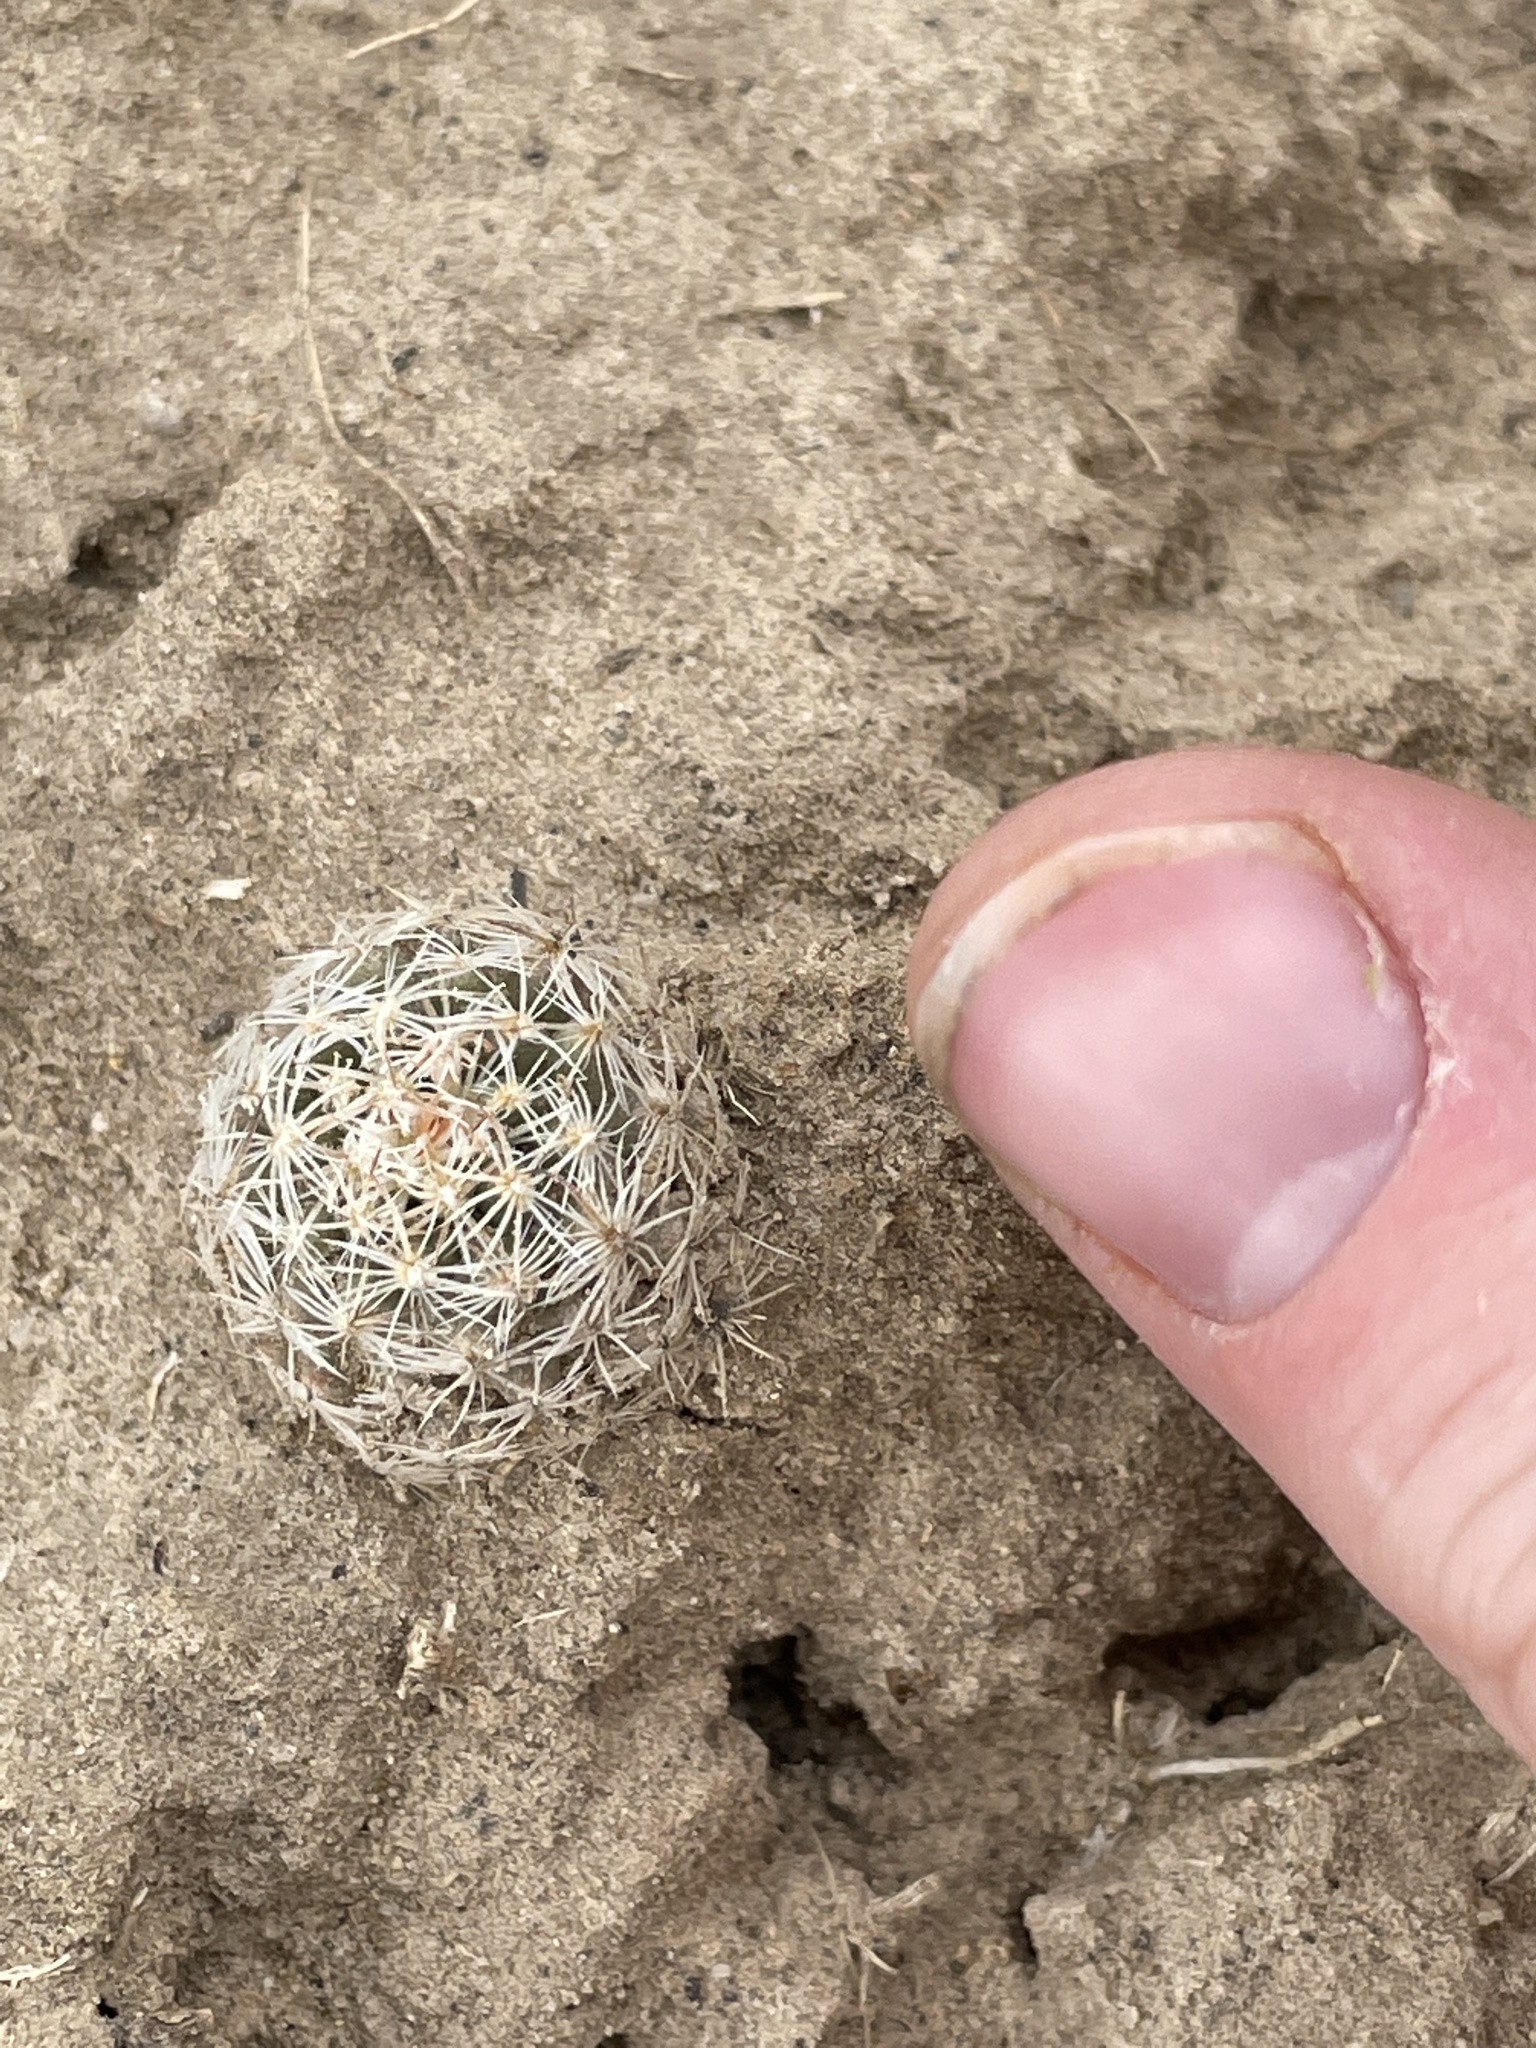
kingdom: Plantae
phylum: Tracheophyta
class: Magnoliopsida
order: Caryophyllales
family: Cactaceae
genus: Pelecyphora
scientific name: Pelecyphora vivipara
